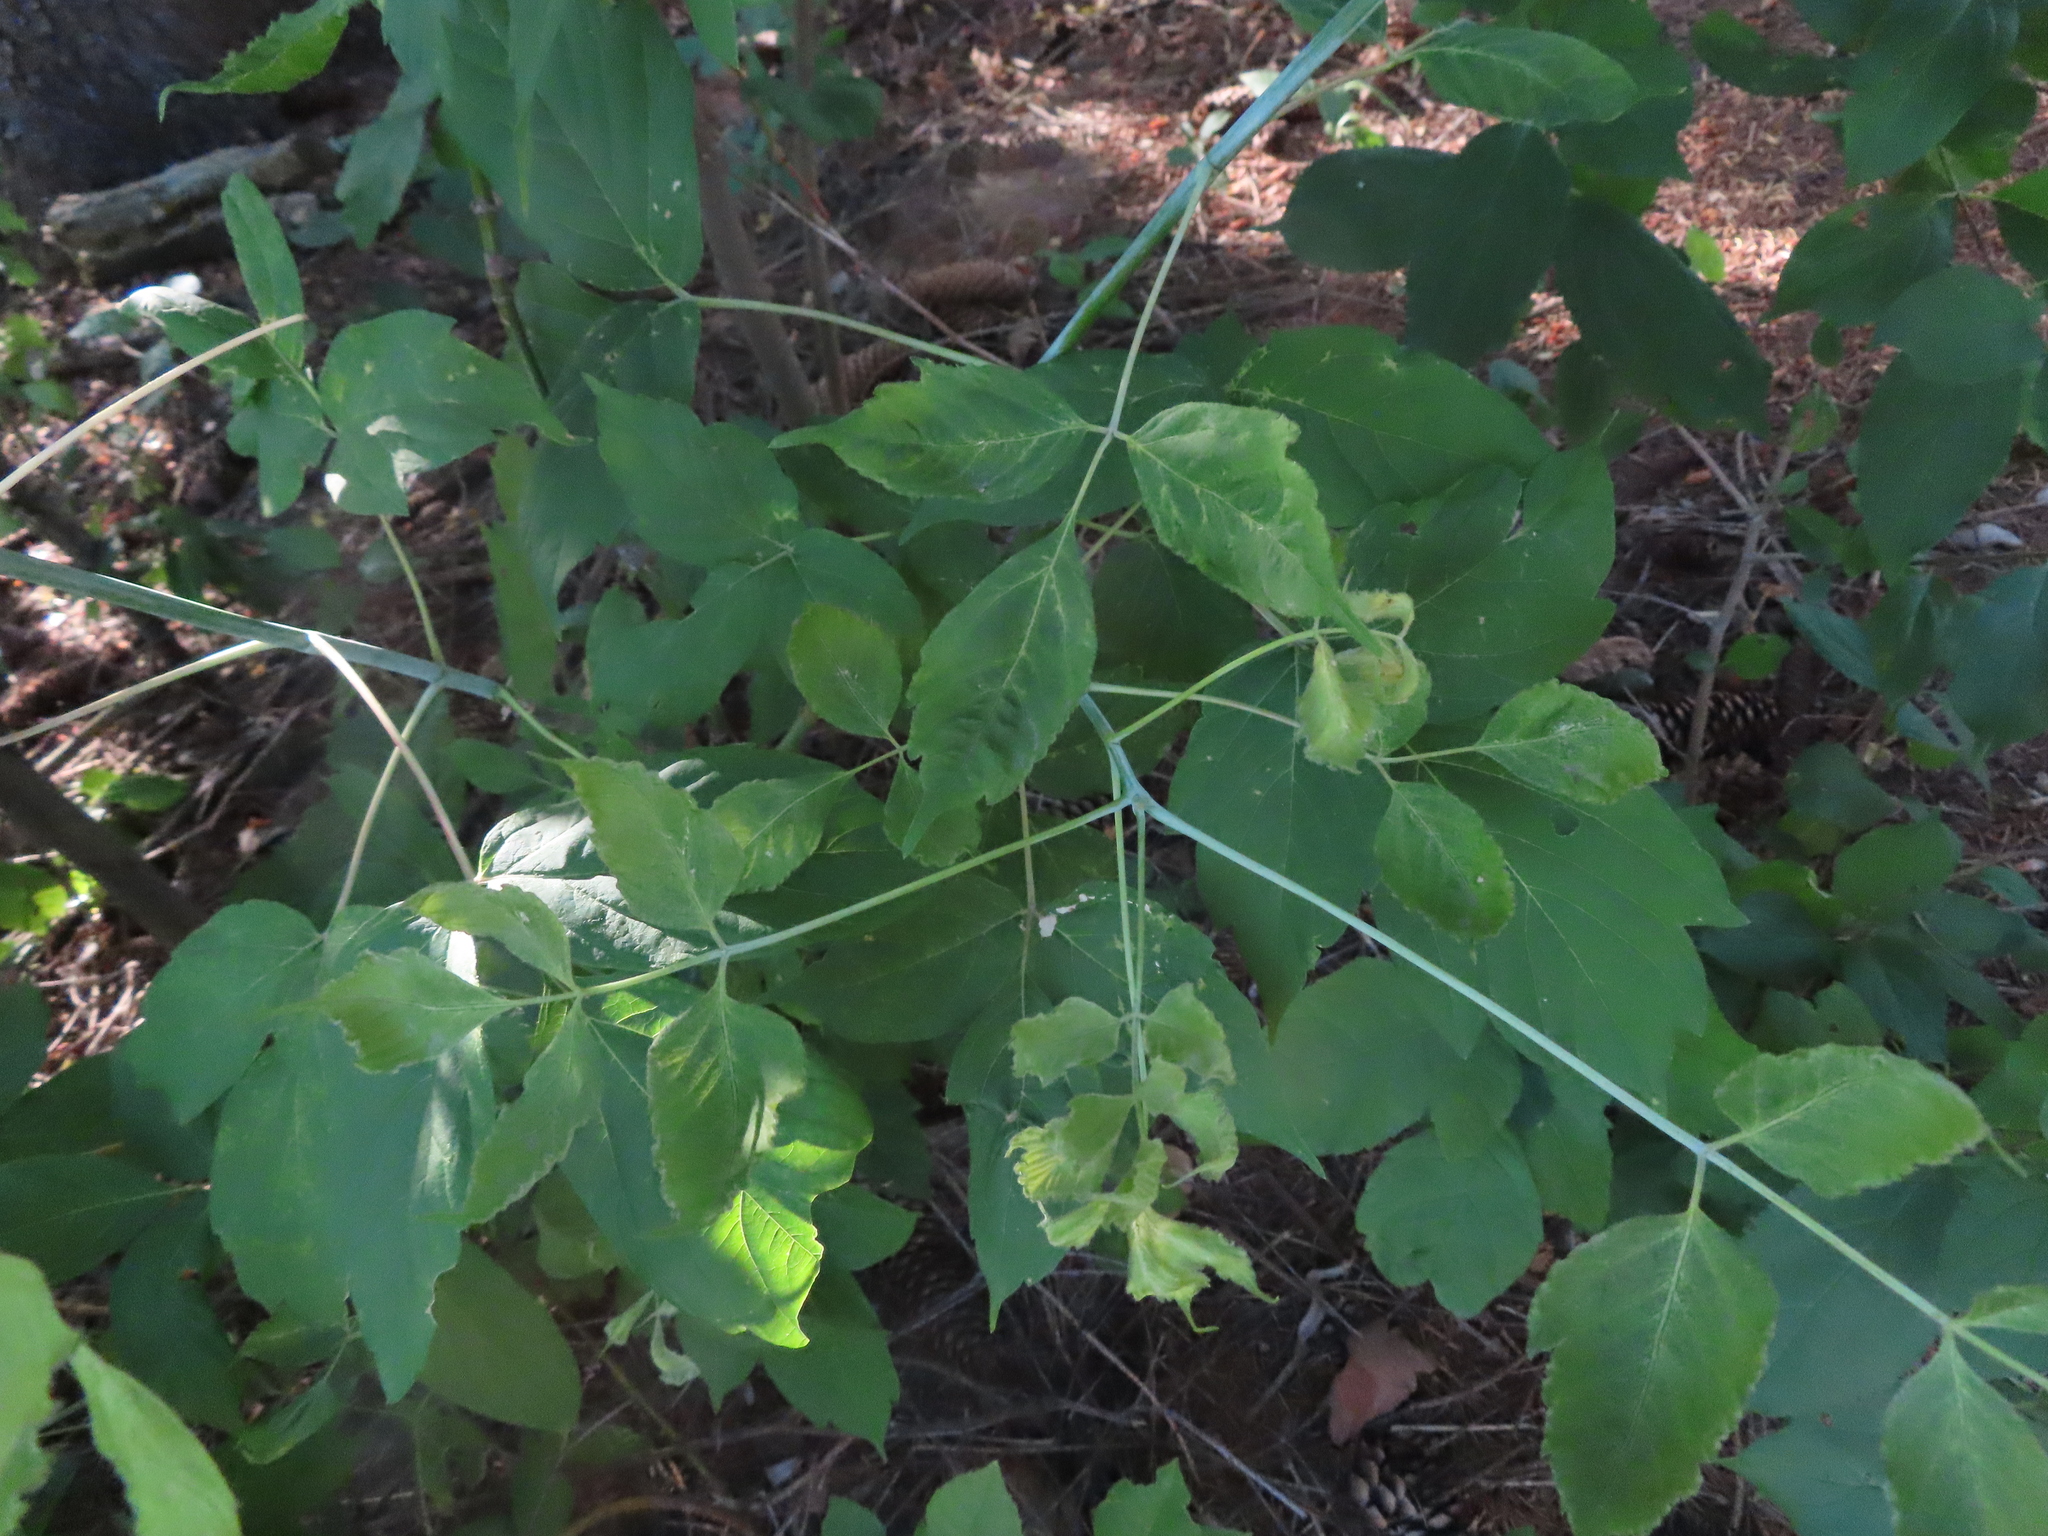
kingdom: Plantae
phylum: Tracheophyta
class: Magnoliopsida
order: Sapindales
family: Sapindaceae
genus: Acer
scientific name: Acer negundo
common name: Ashleaf maple
